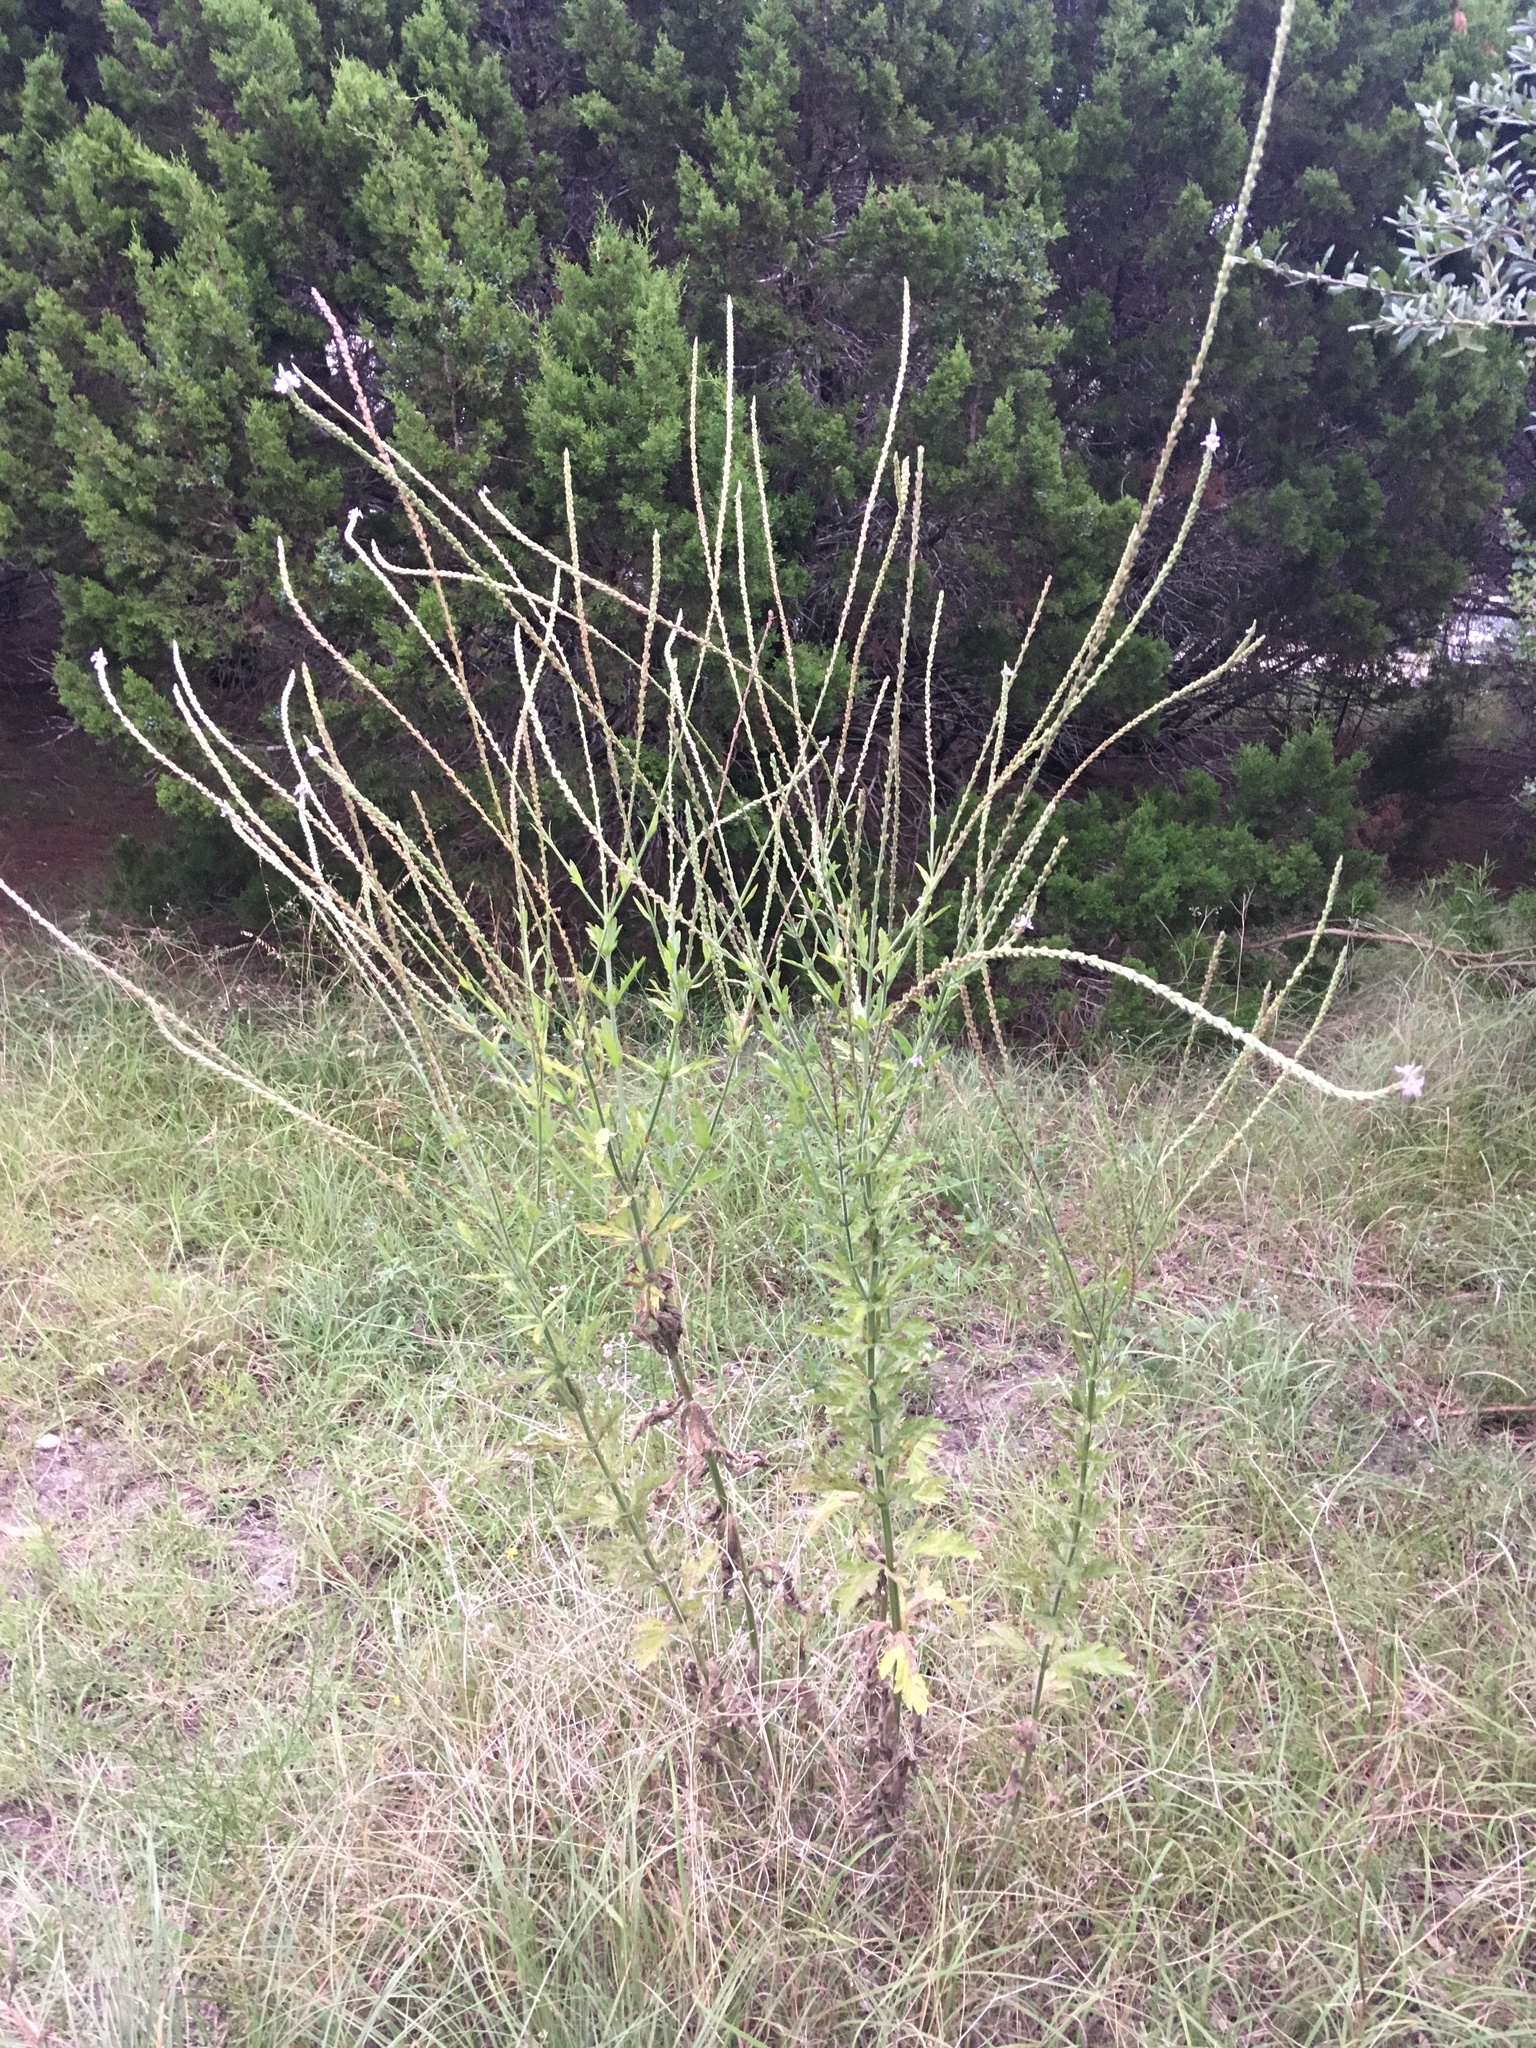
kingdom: Plantae
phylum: Tracheophyta
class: Magnoliopsida
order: Lamiales
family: Verbenaceae
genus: Verbena
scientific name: Verbena xutha
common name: Gulf vervain
